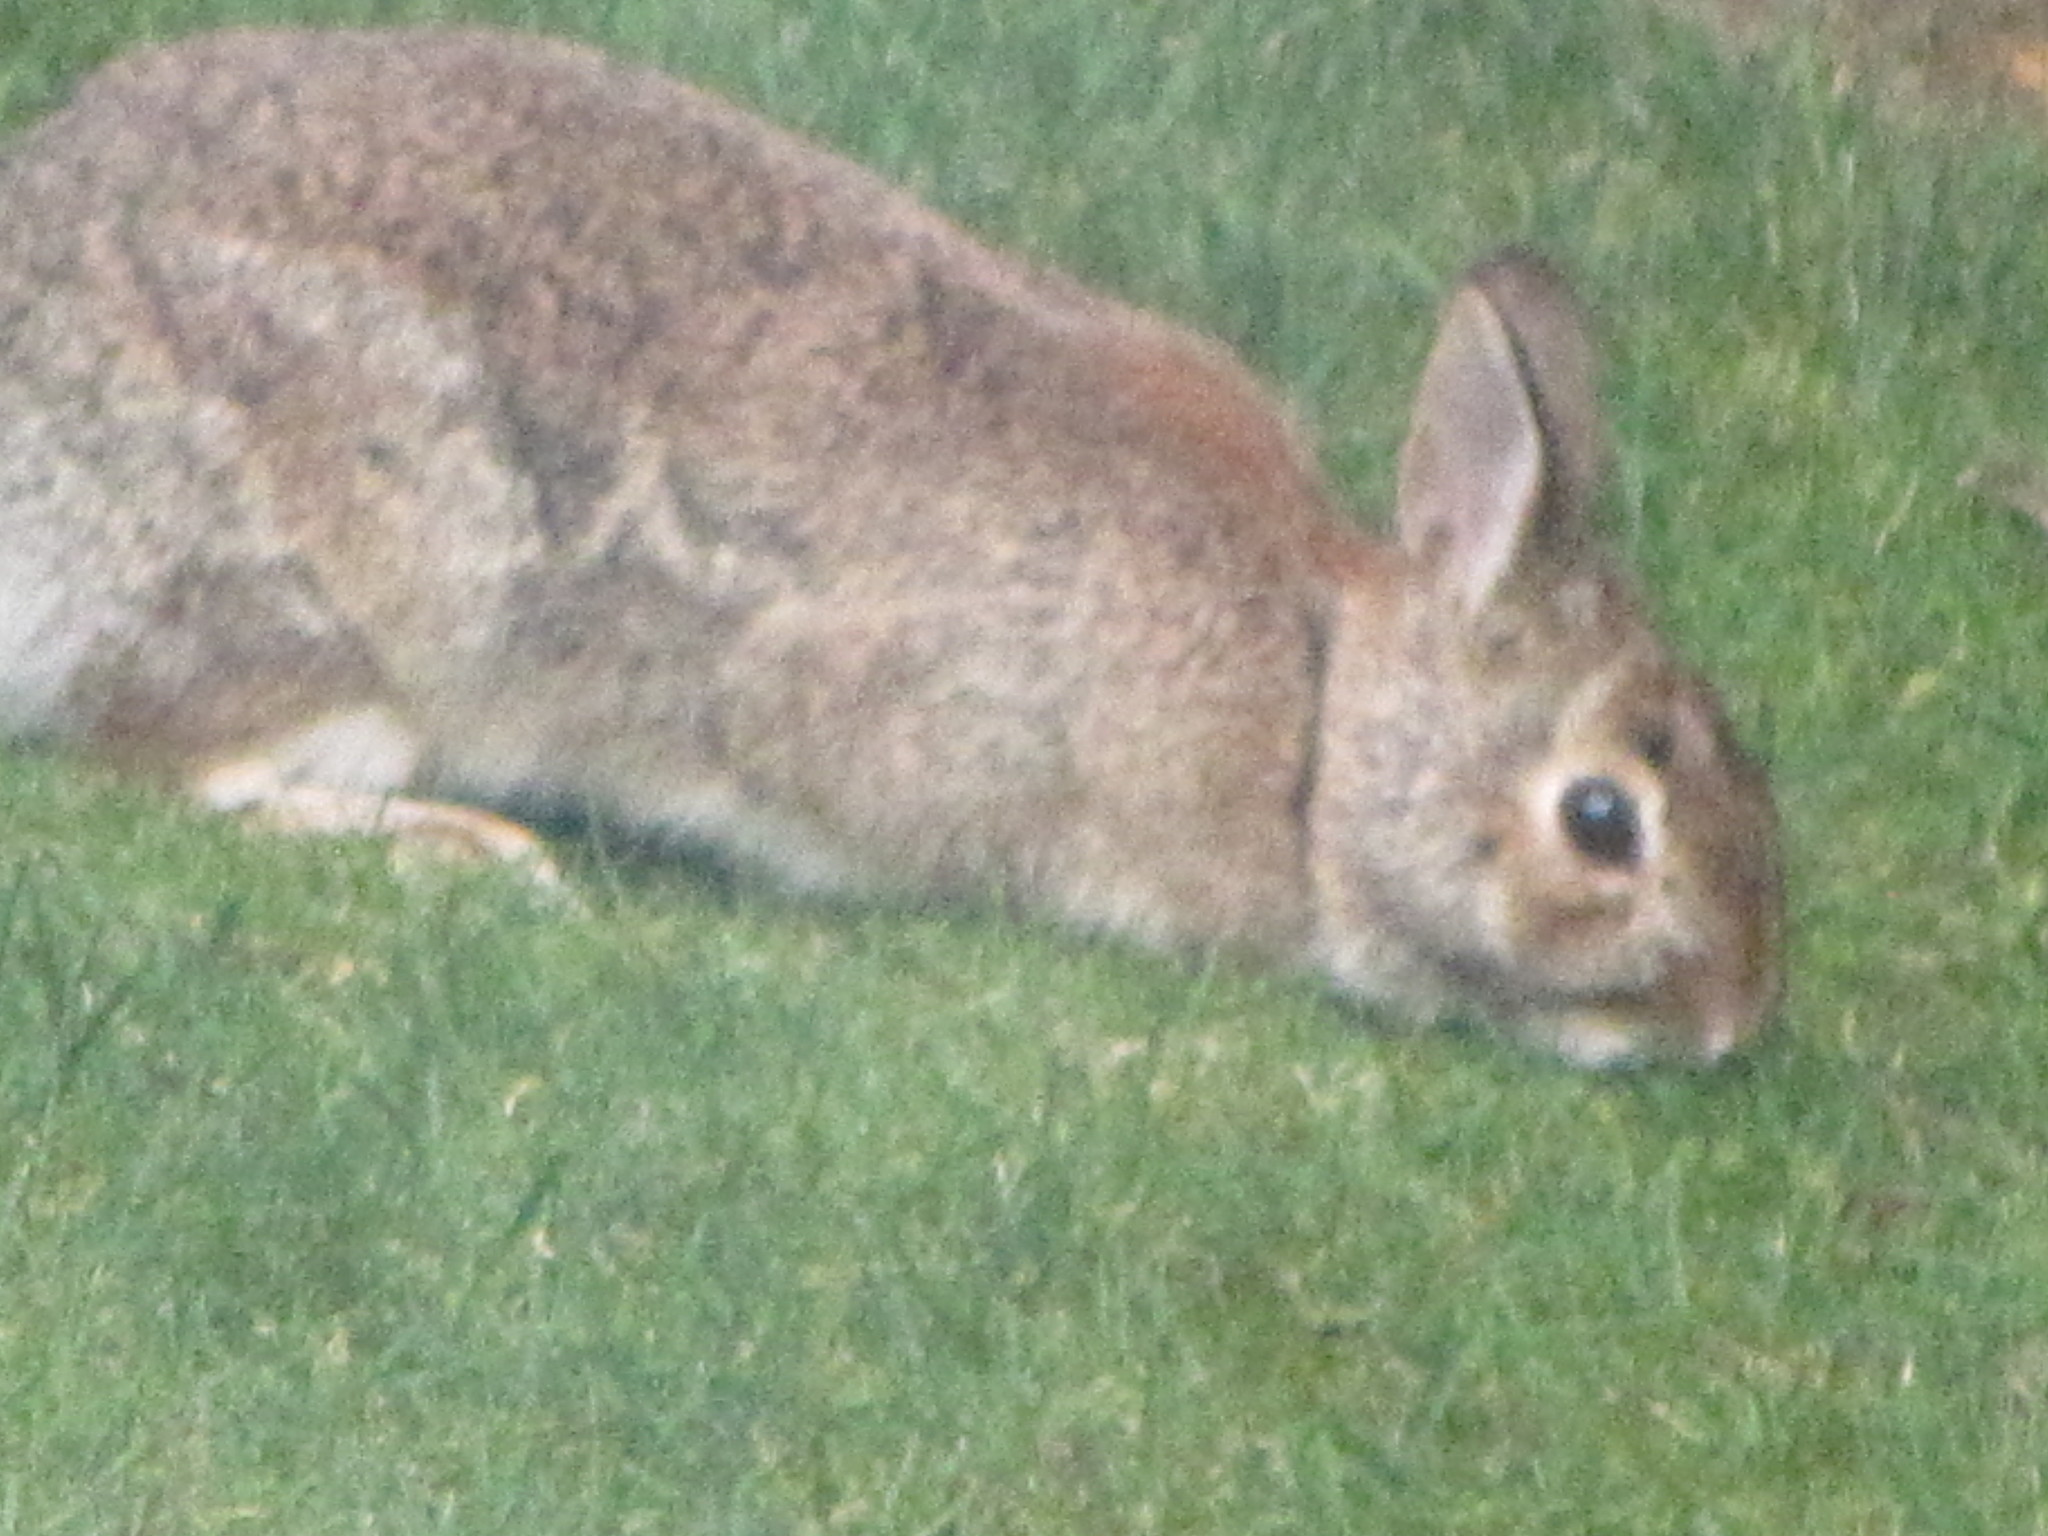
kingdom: Animalia
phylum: Chordata
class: Mammalia
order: Lagomorpha
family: Leporidae
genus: Sylvilagus
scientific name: Sylvilagus floridanus
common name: Eastern cottontail
